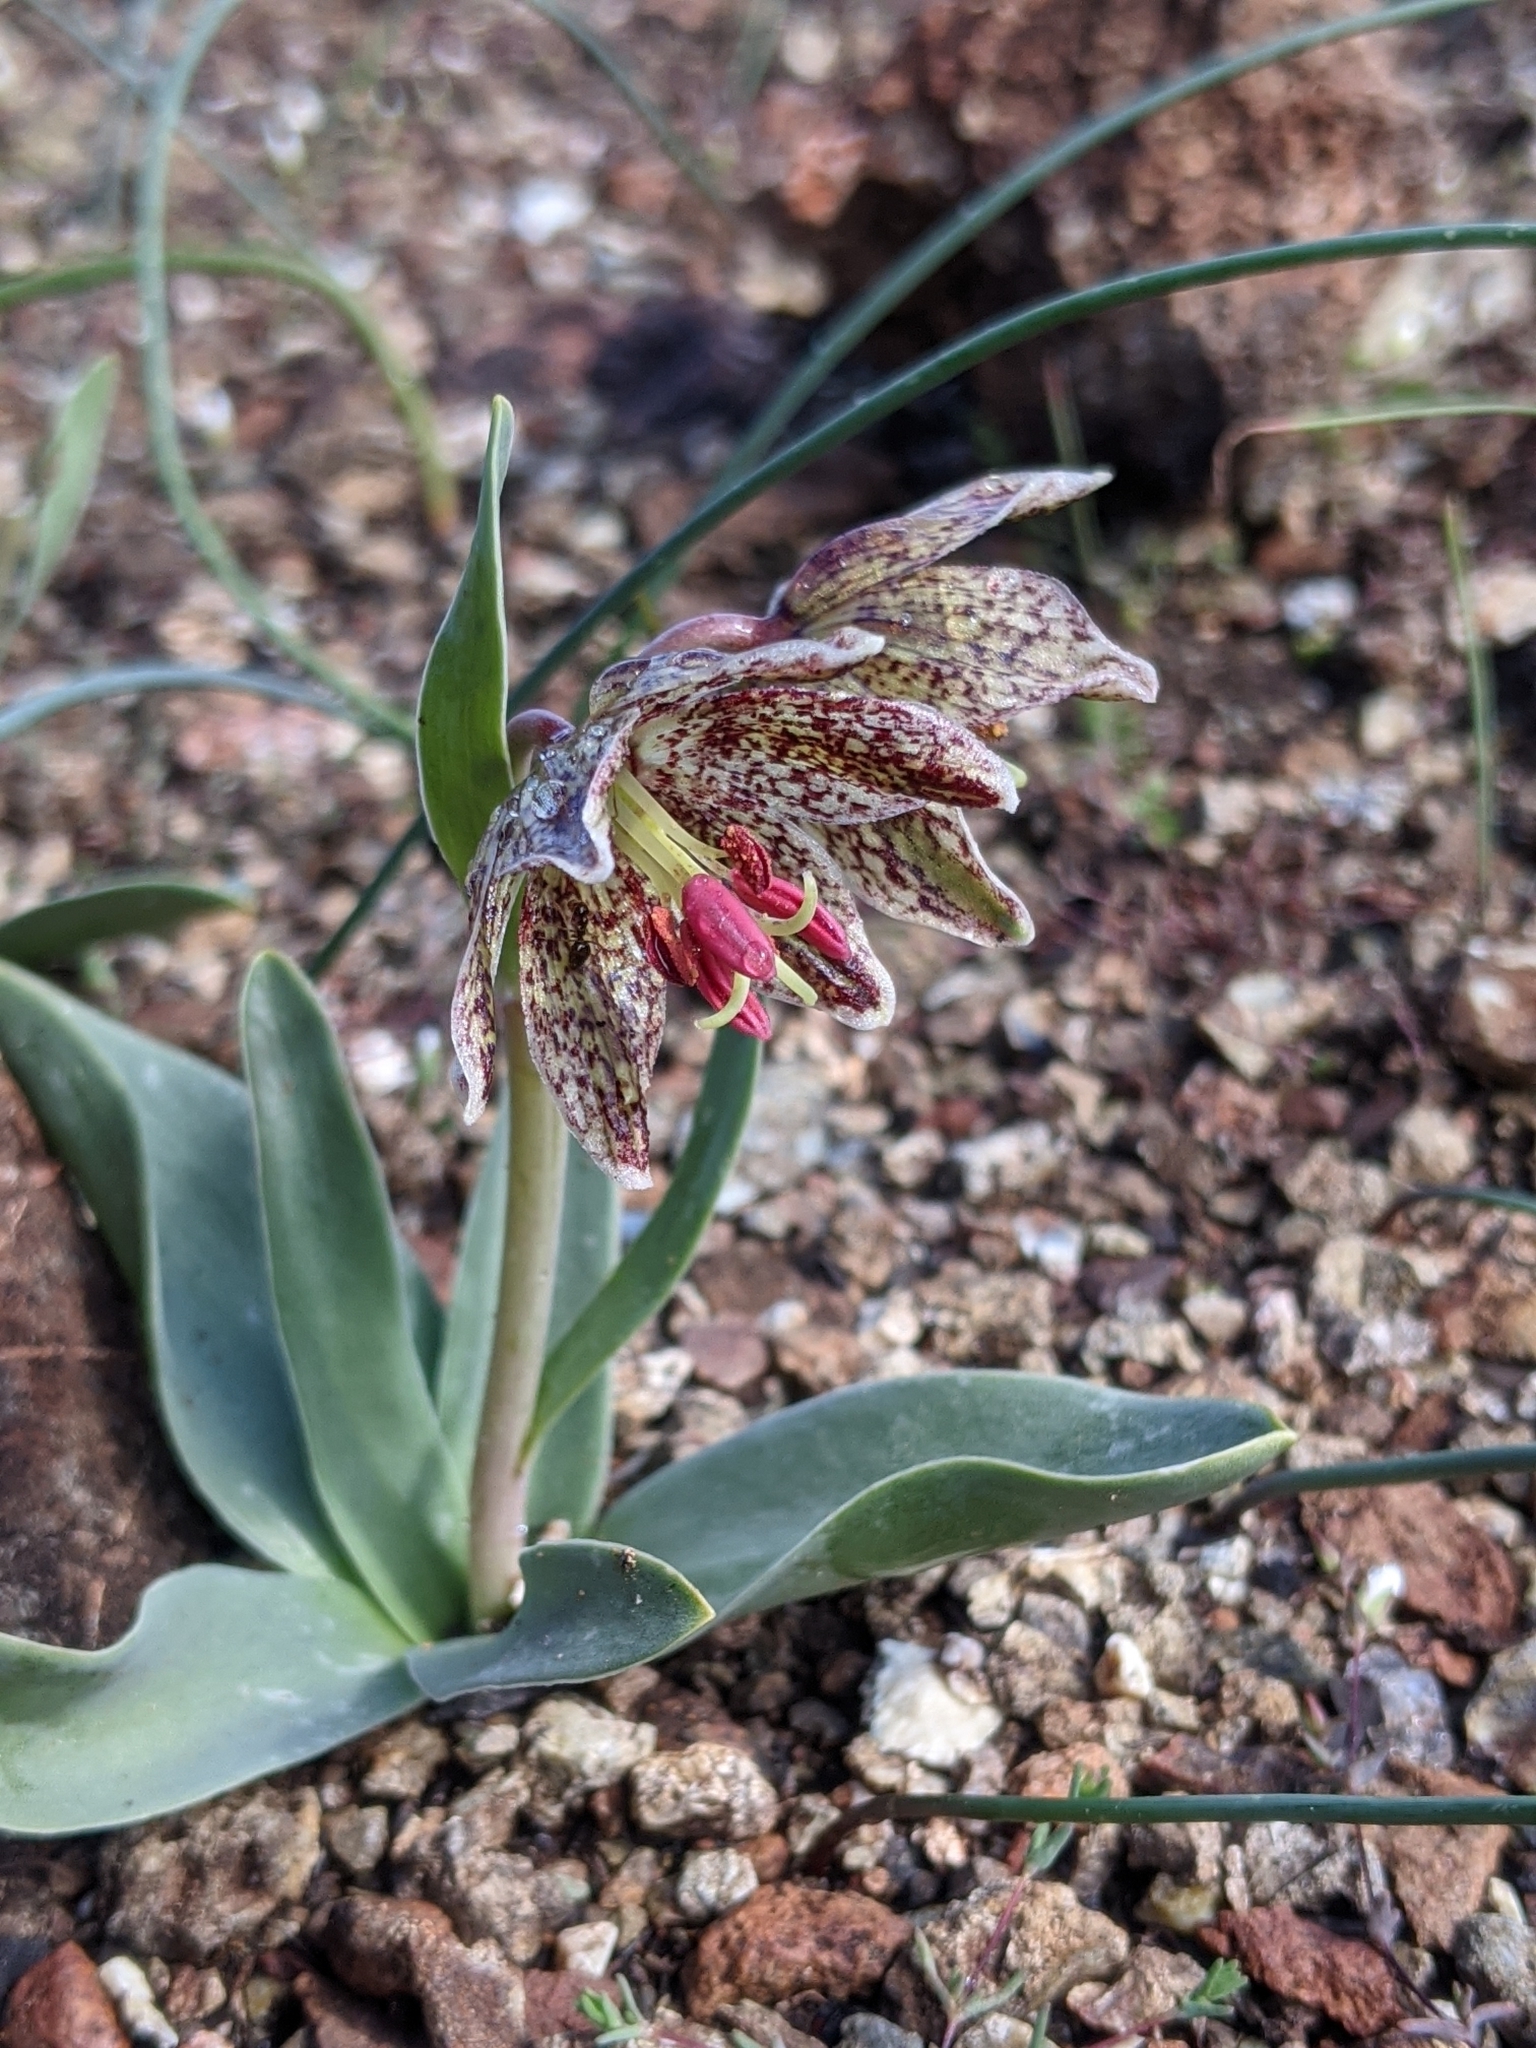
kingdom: Plantae
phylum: Tracheophyta
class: Liliopsida
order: Liliales
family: Liliaceae
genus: Fritillaria
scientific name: Fritillaria purdyi
